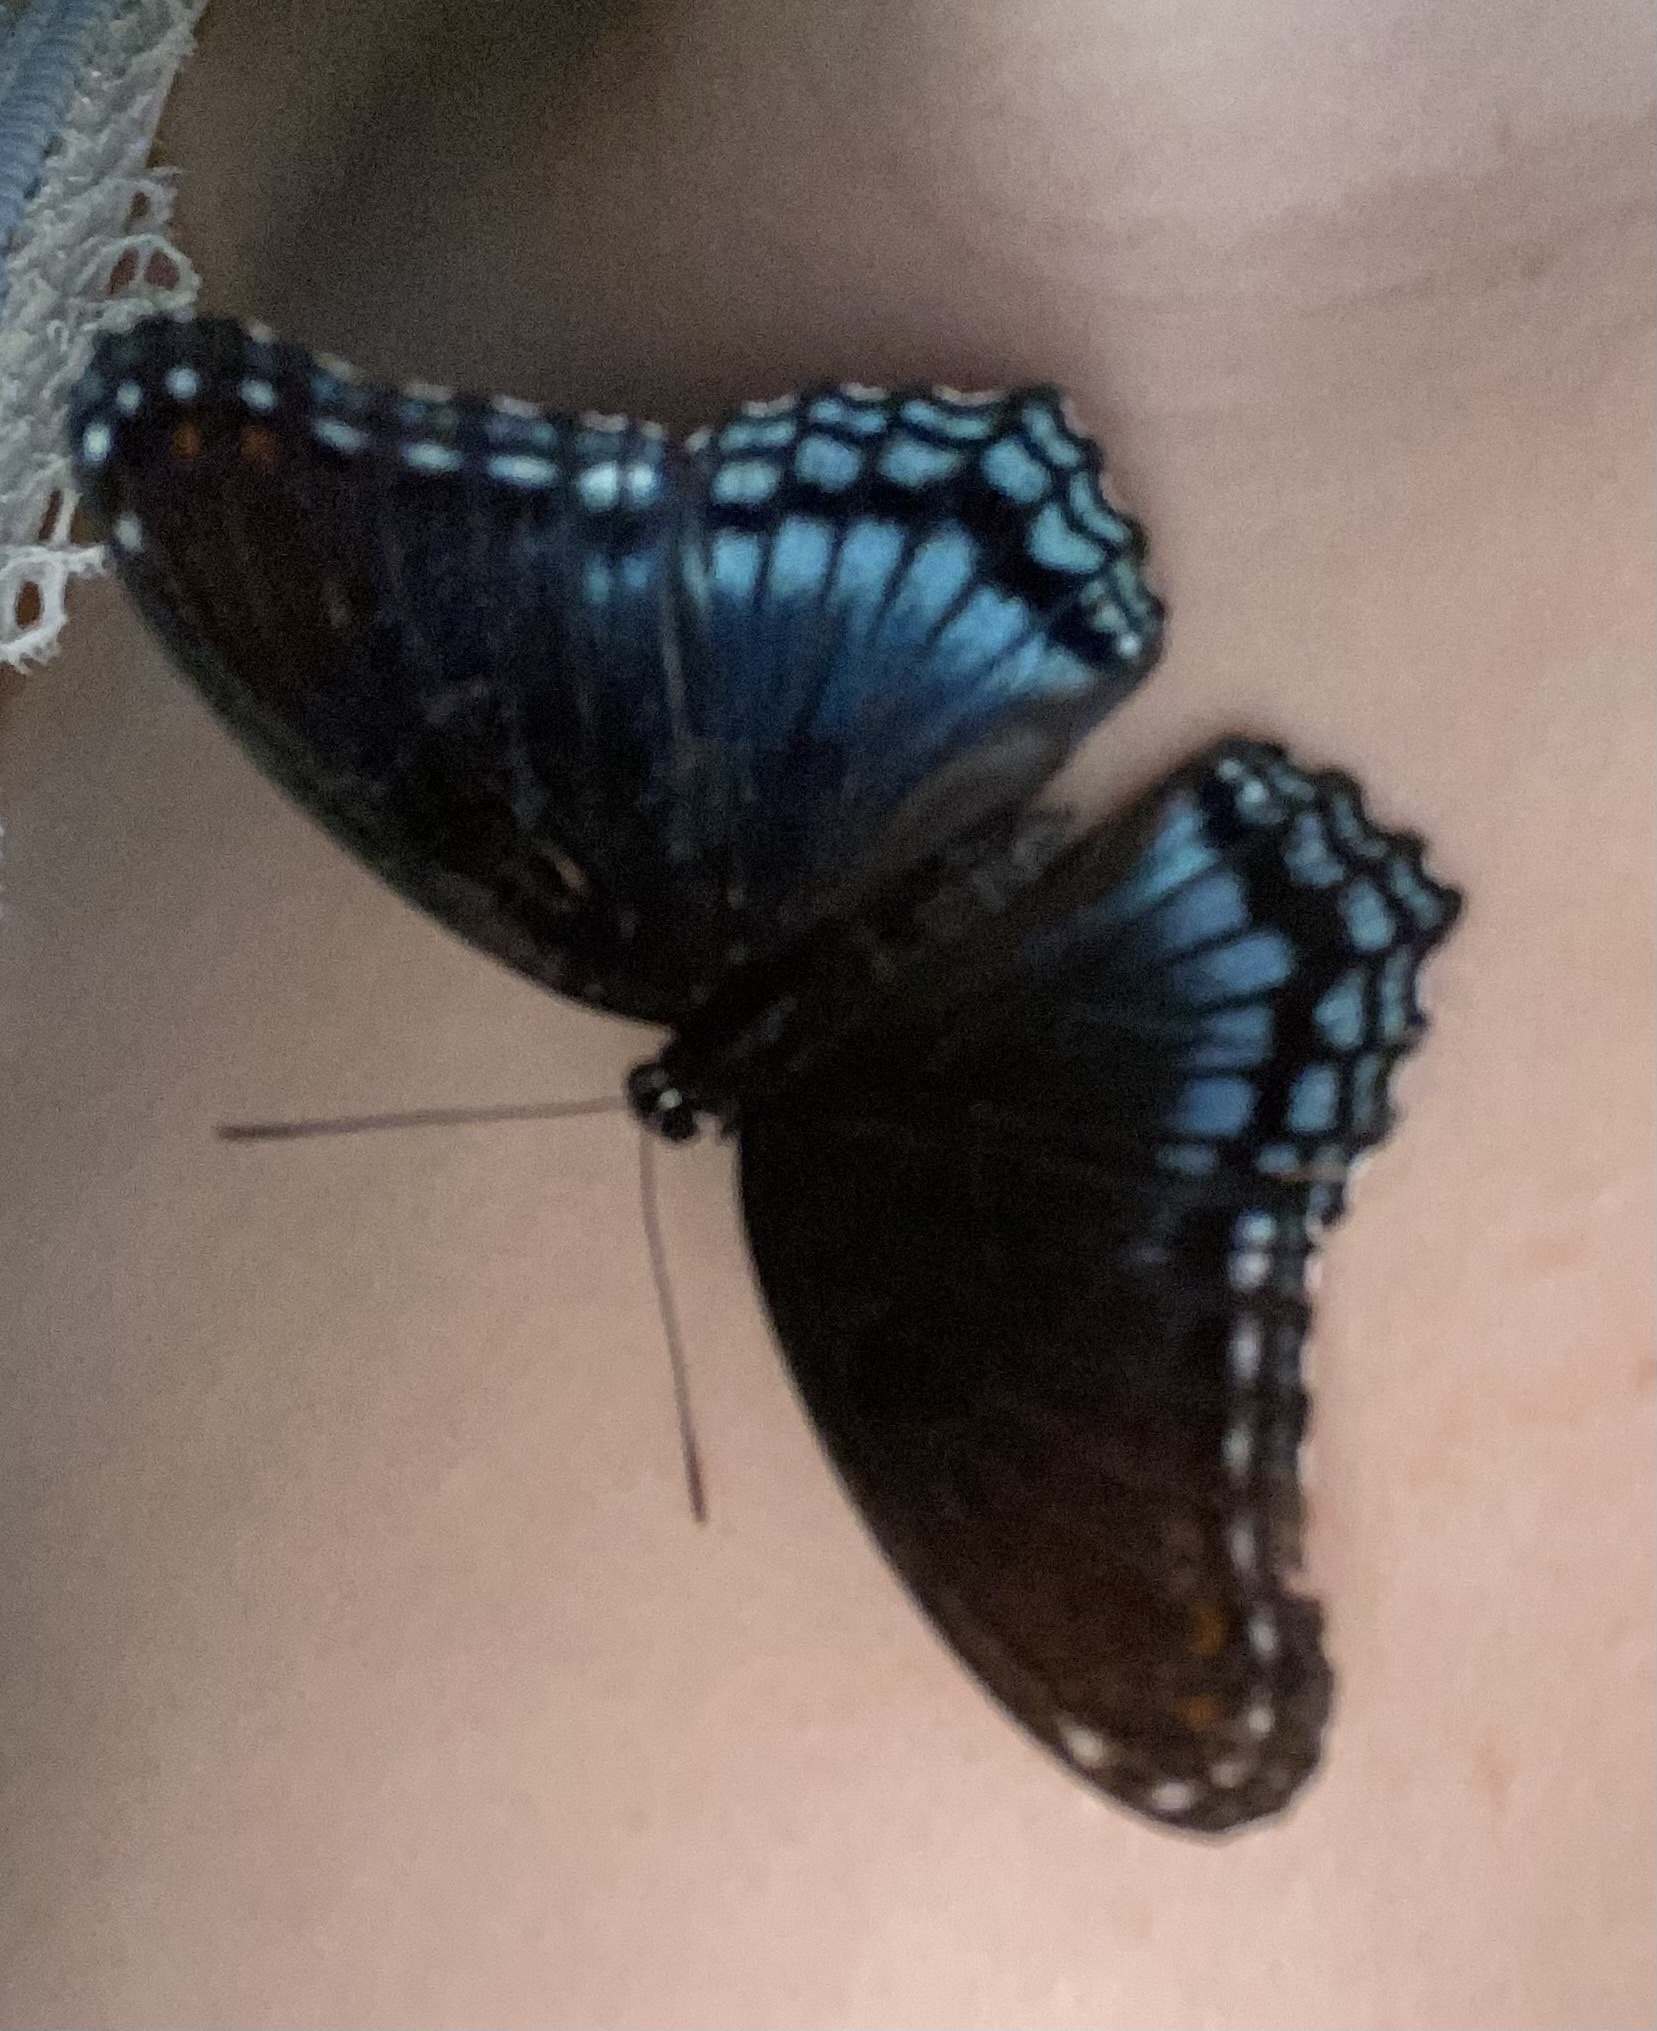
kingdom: Animalia
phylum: Arthropoda
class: Insecta
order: Lepidoptera
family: Nymphalidae
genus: Limenitis
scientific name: Limenitis astyanax
